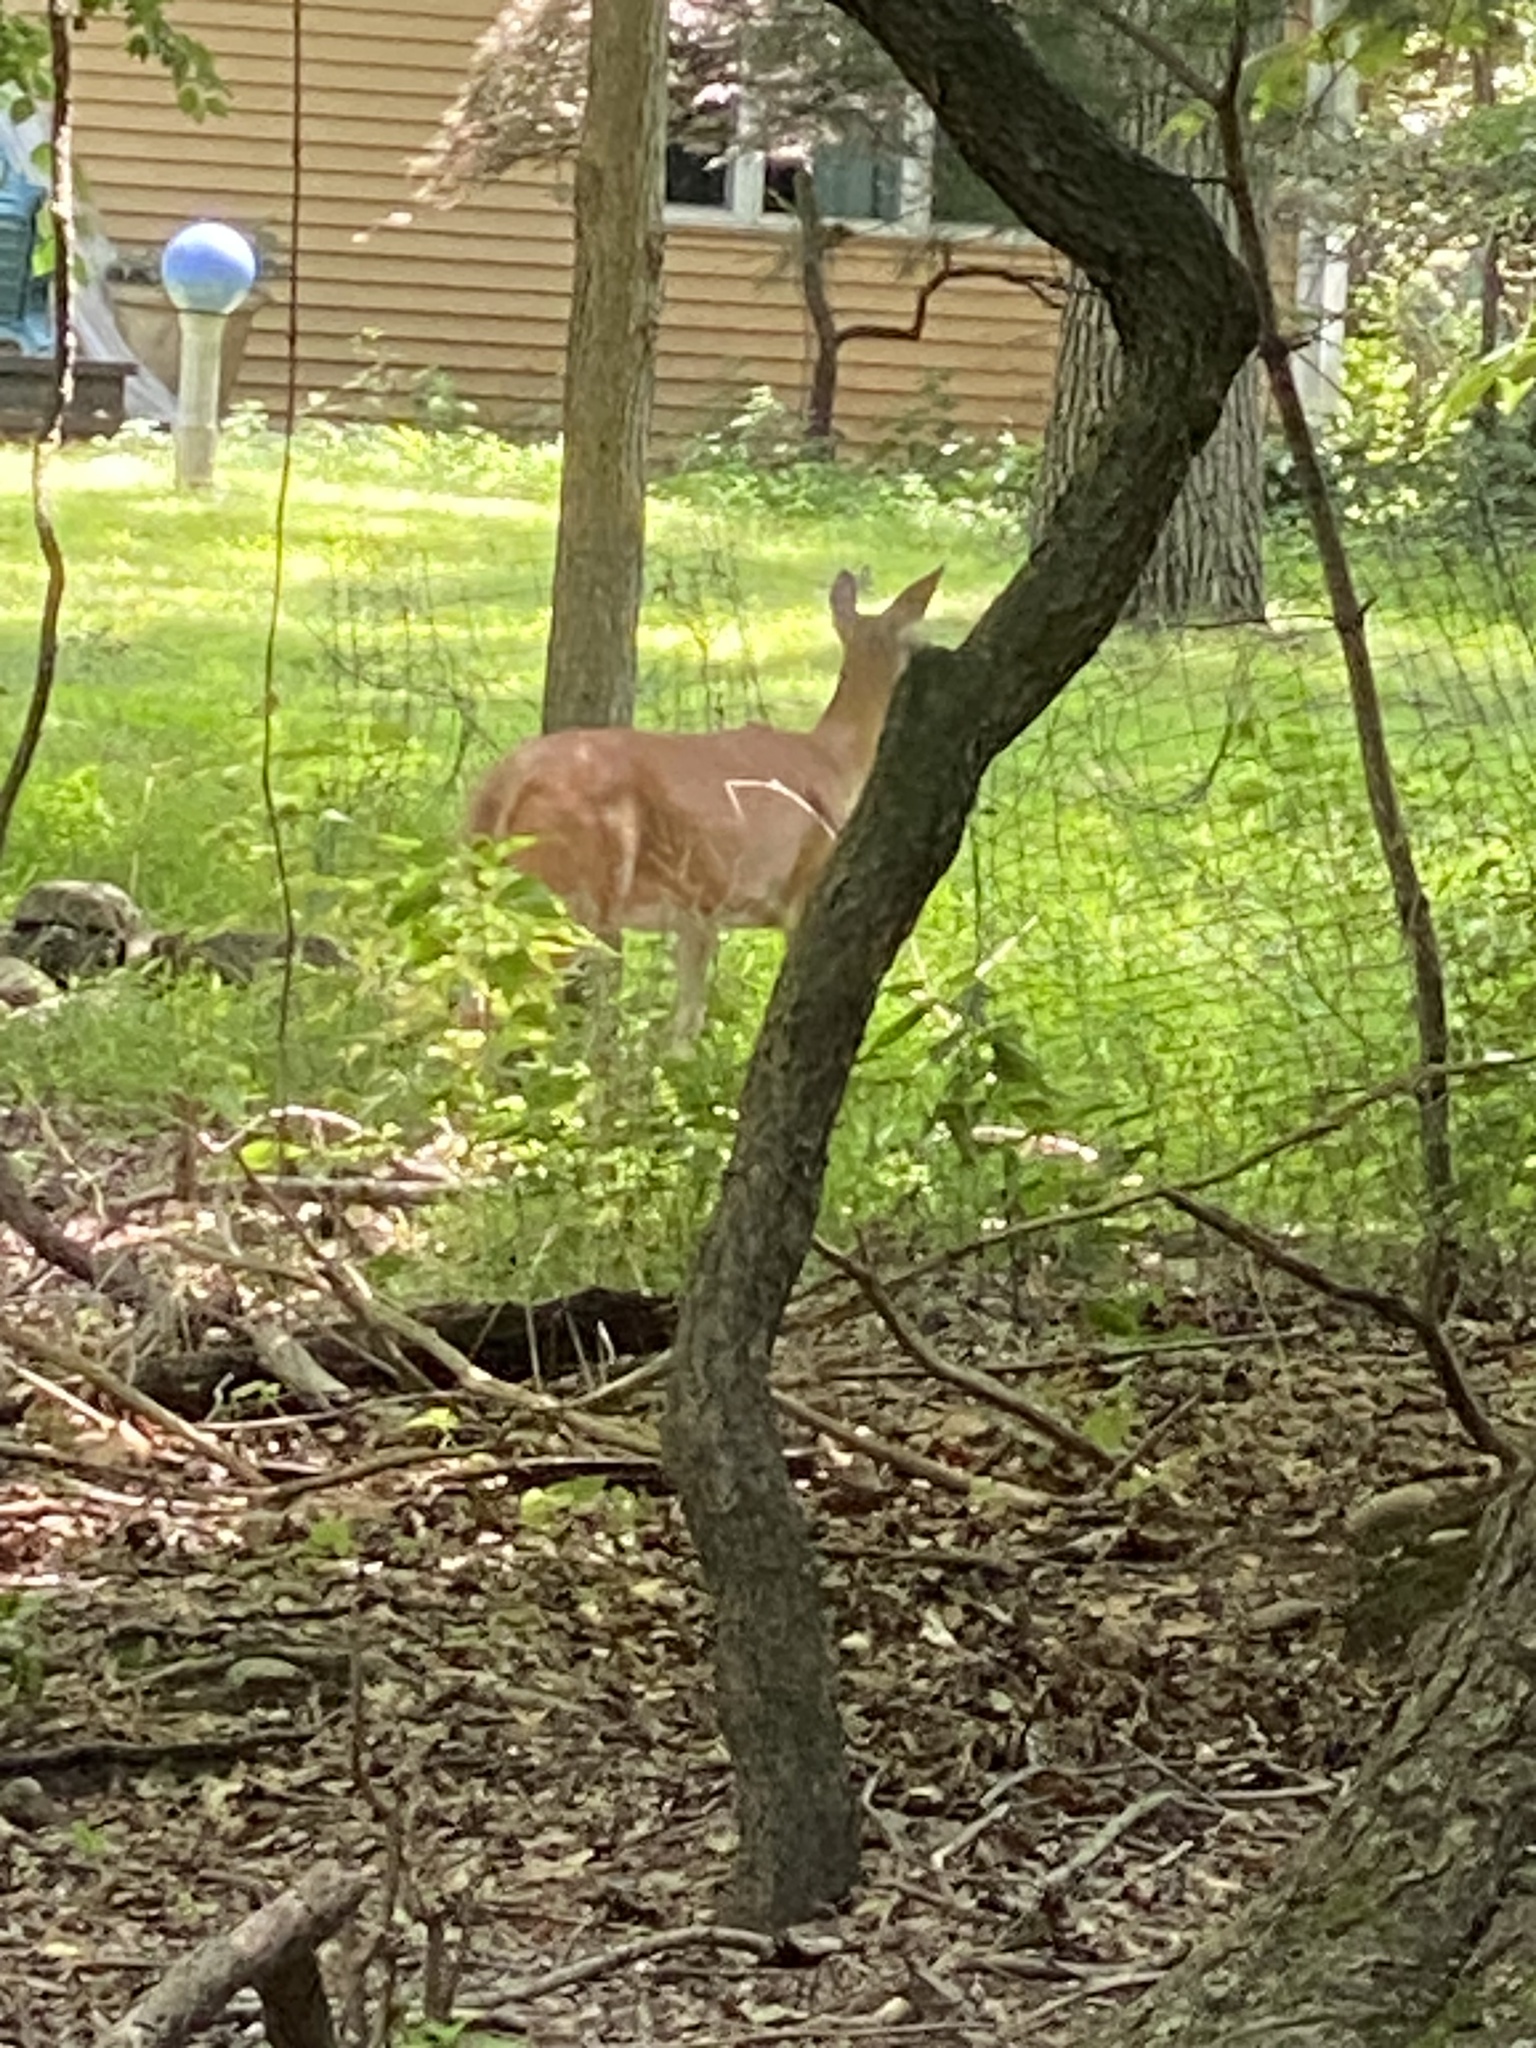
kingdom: Animalia
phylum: Chordata
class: Mammalia
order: Artiodactyla
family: Cervidae
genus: Odocoileus
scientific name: Odocoileus virginianus
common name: White-tailed deer
